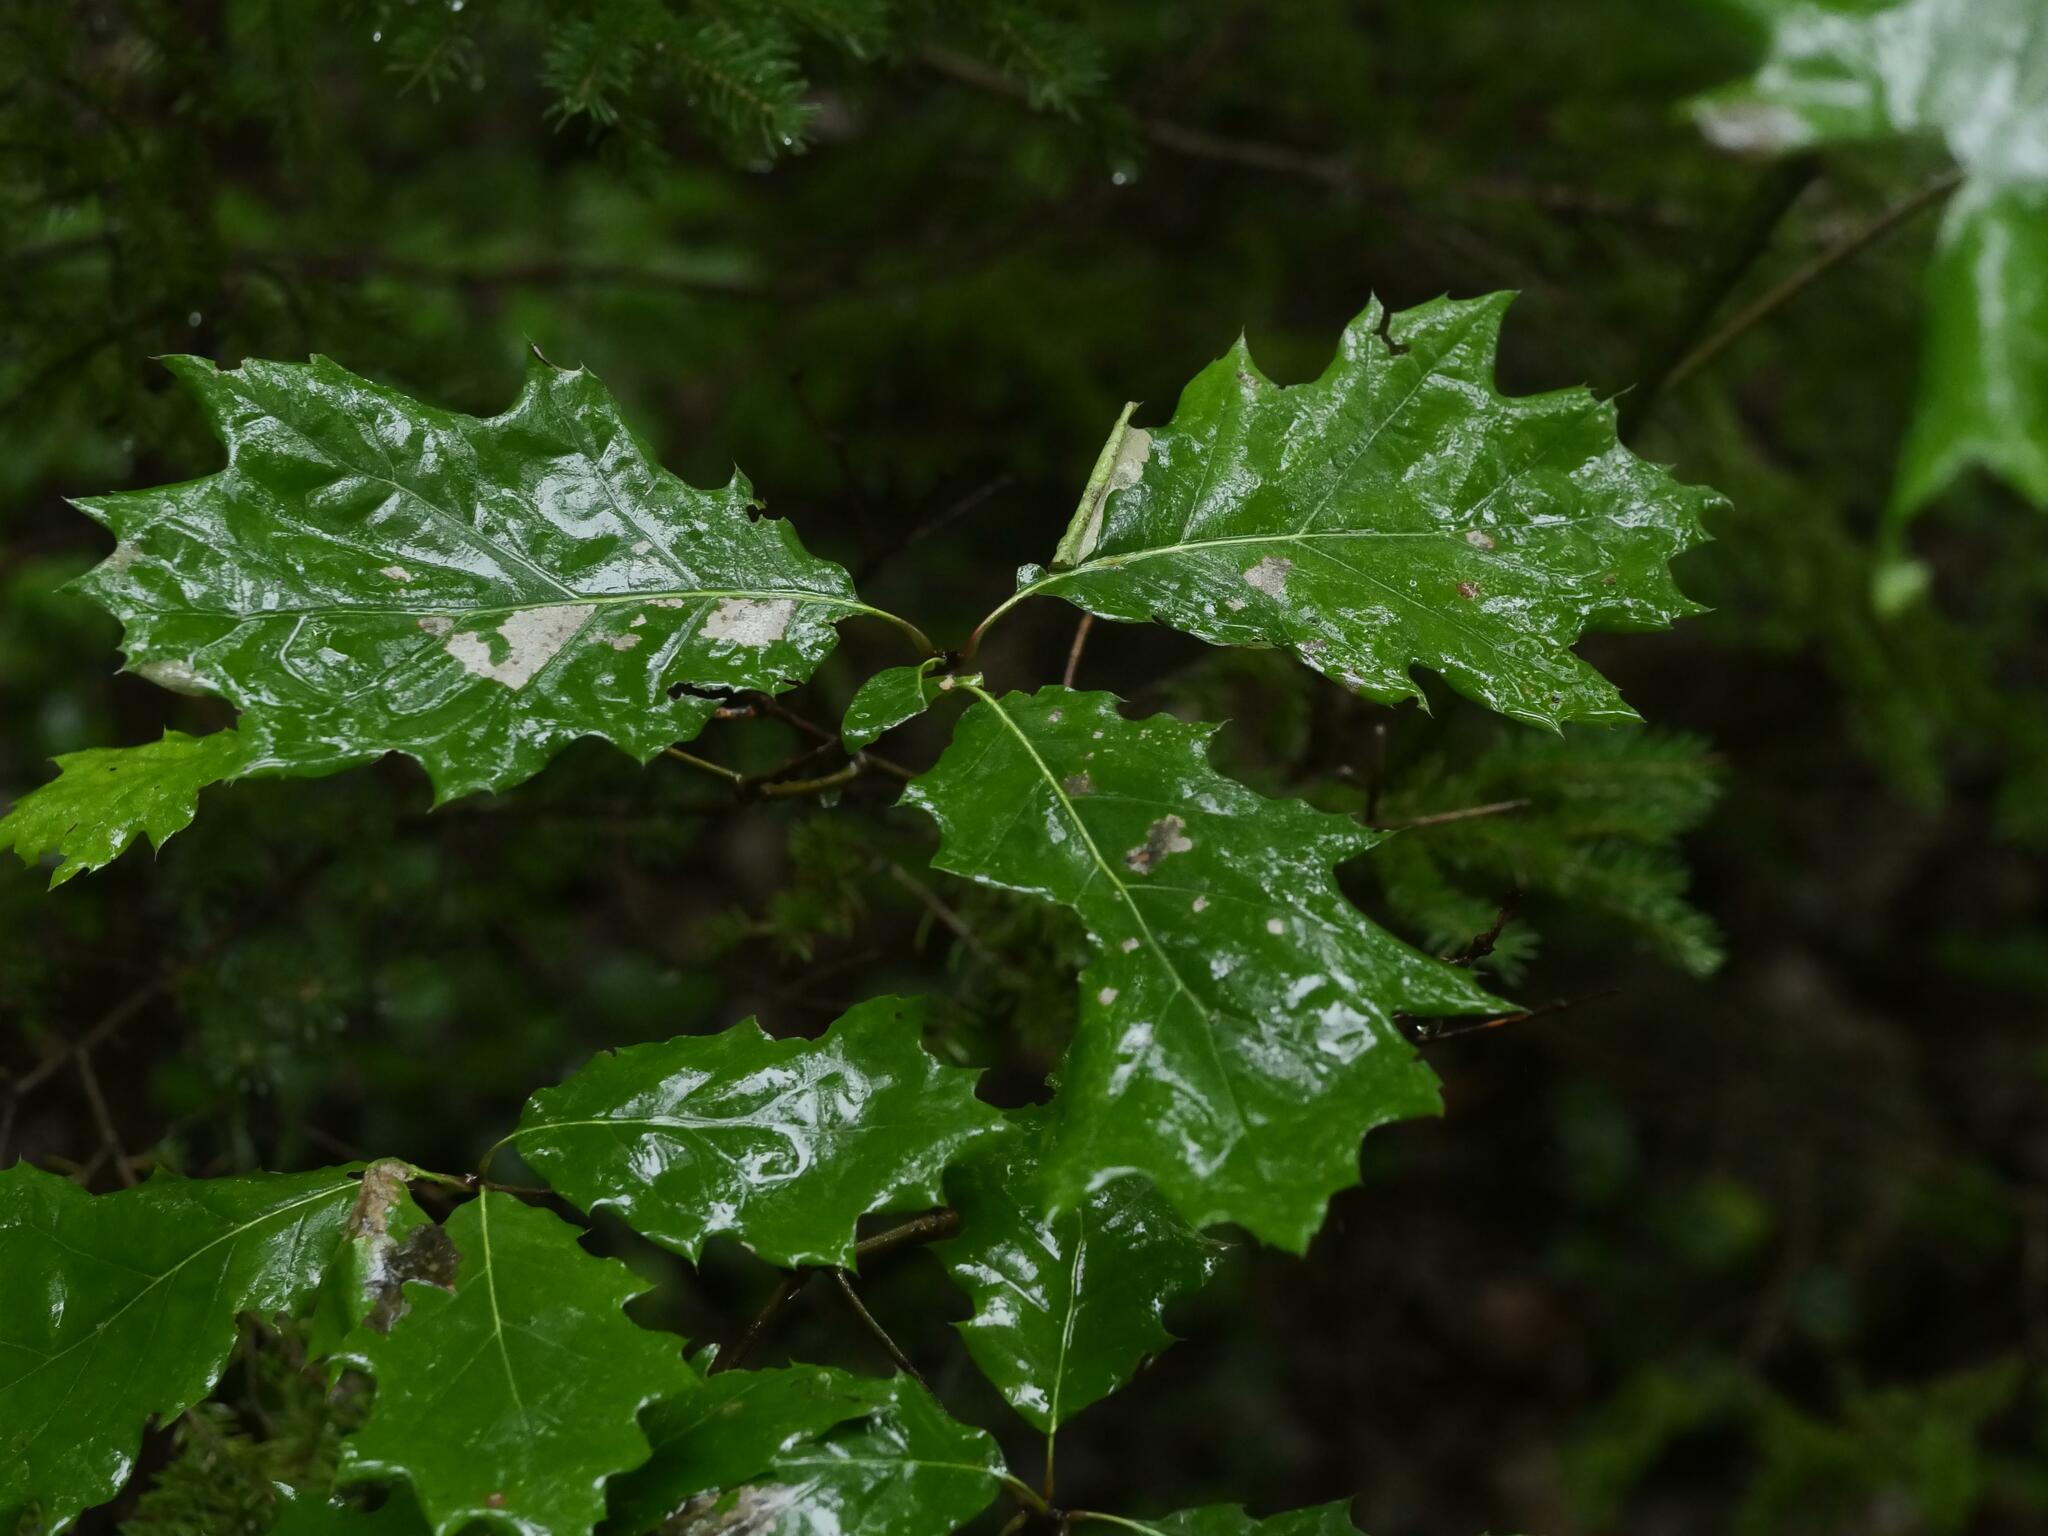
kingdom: Plantae
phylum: Tracheophyta
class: Magnoliopsida
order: Fagales
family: Fagaceae
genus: Quercus
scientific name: Quercus rubra
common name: Red oak
